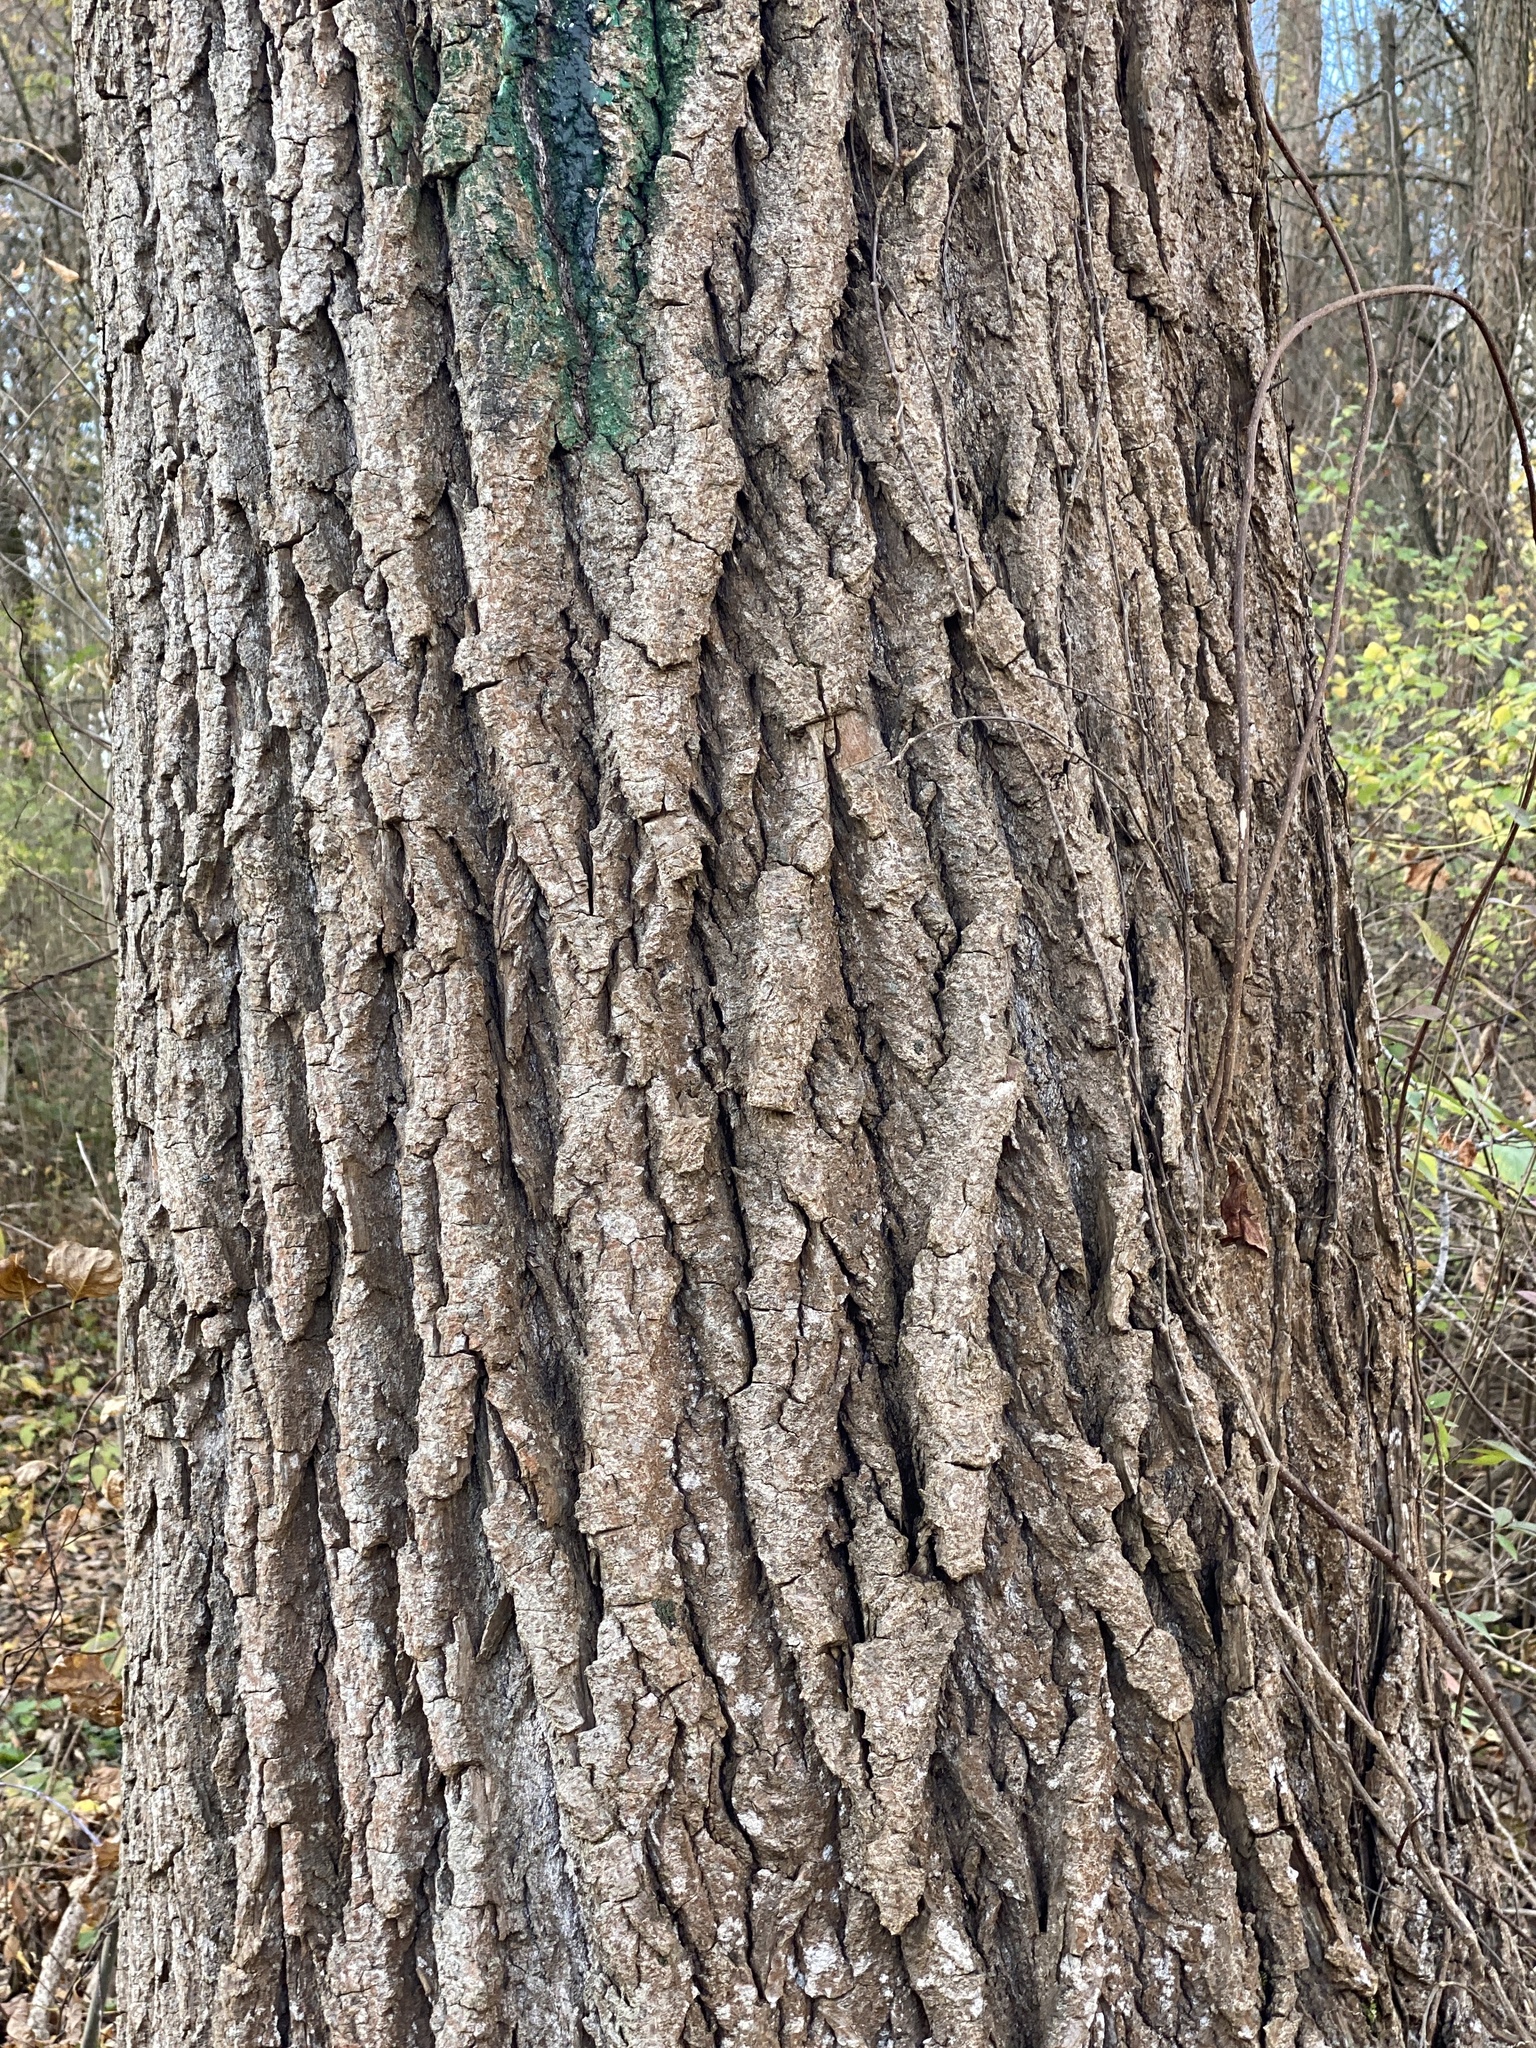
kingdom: Plantae
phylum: Tracheophyta
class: Magnoliopsida
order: Malpighiales
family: Salicaceae
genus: Populus
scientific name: Populus deltoides
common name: Eastern cottonwood
